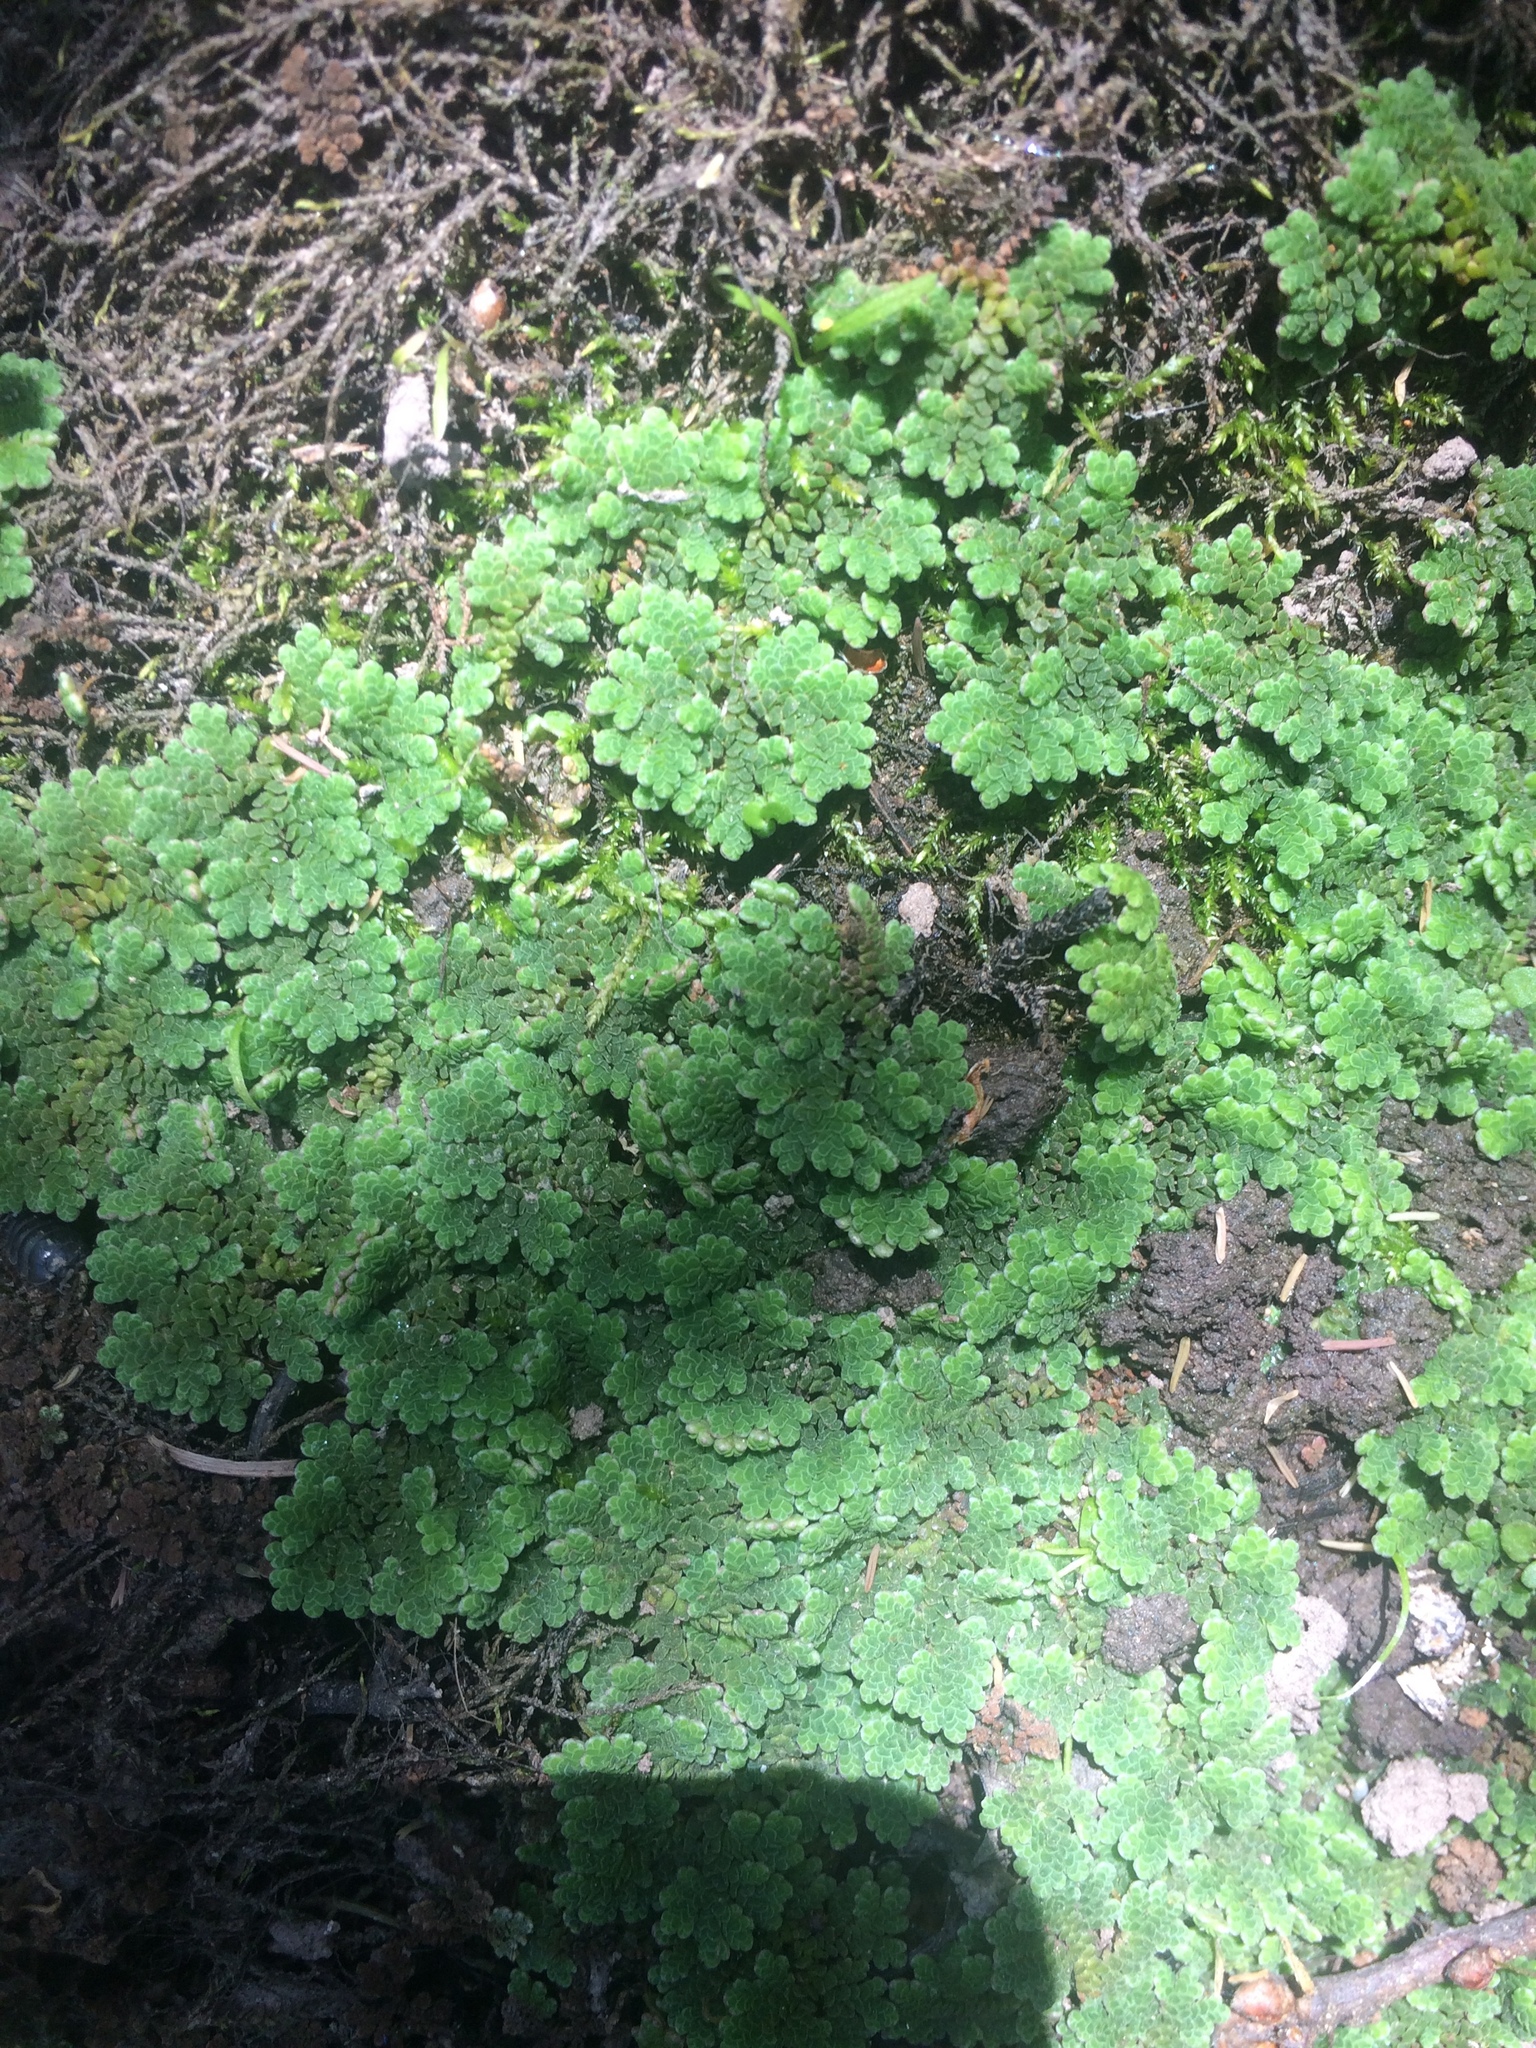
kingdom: Plantae
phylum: Tracheophyta
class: Polypodiopsida
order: Salviniales
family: Salviniaceae
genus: Azolla
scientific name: Azolla filiculoides
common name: Water fern
